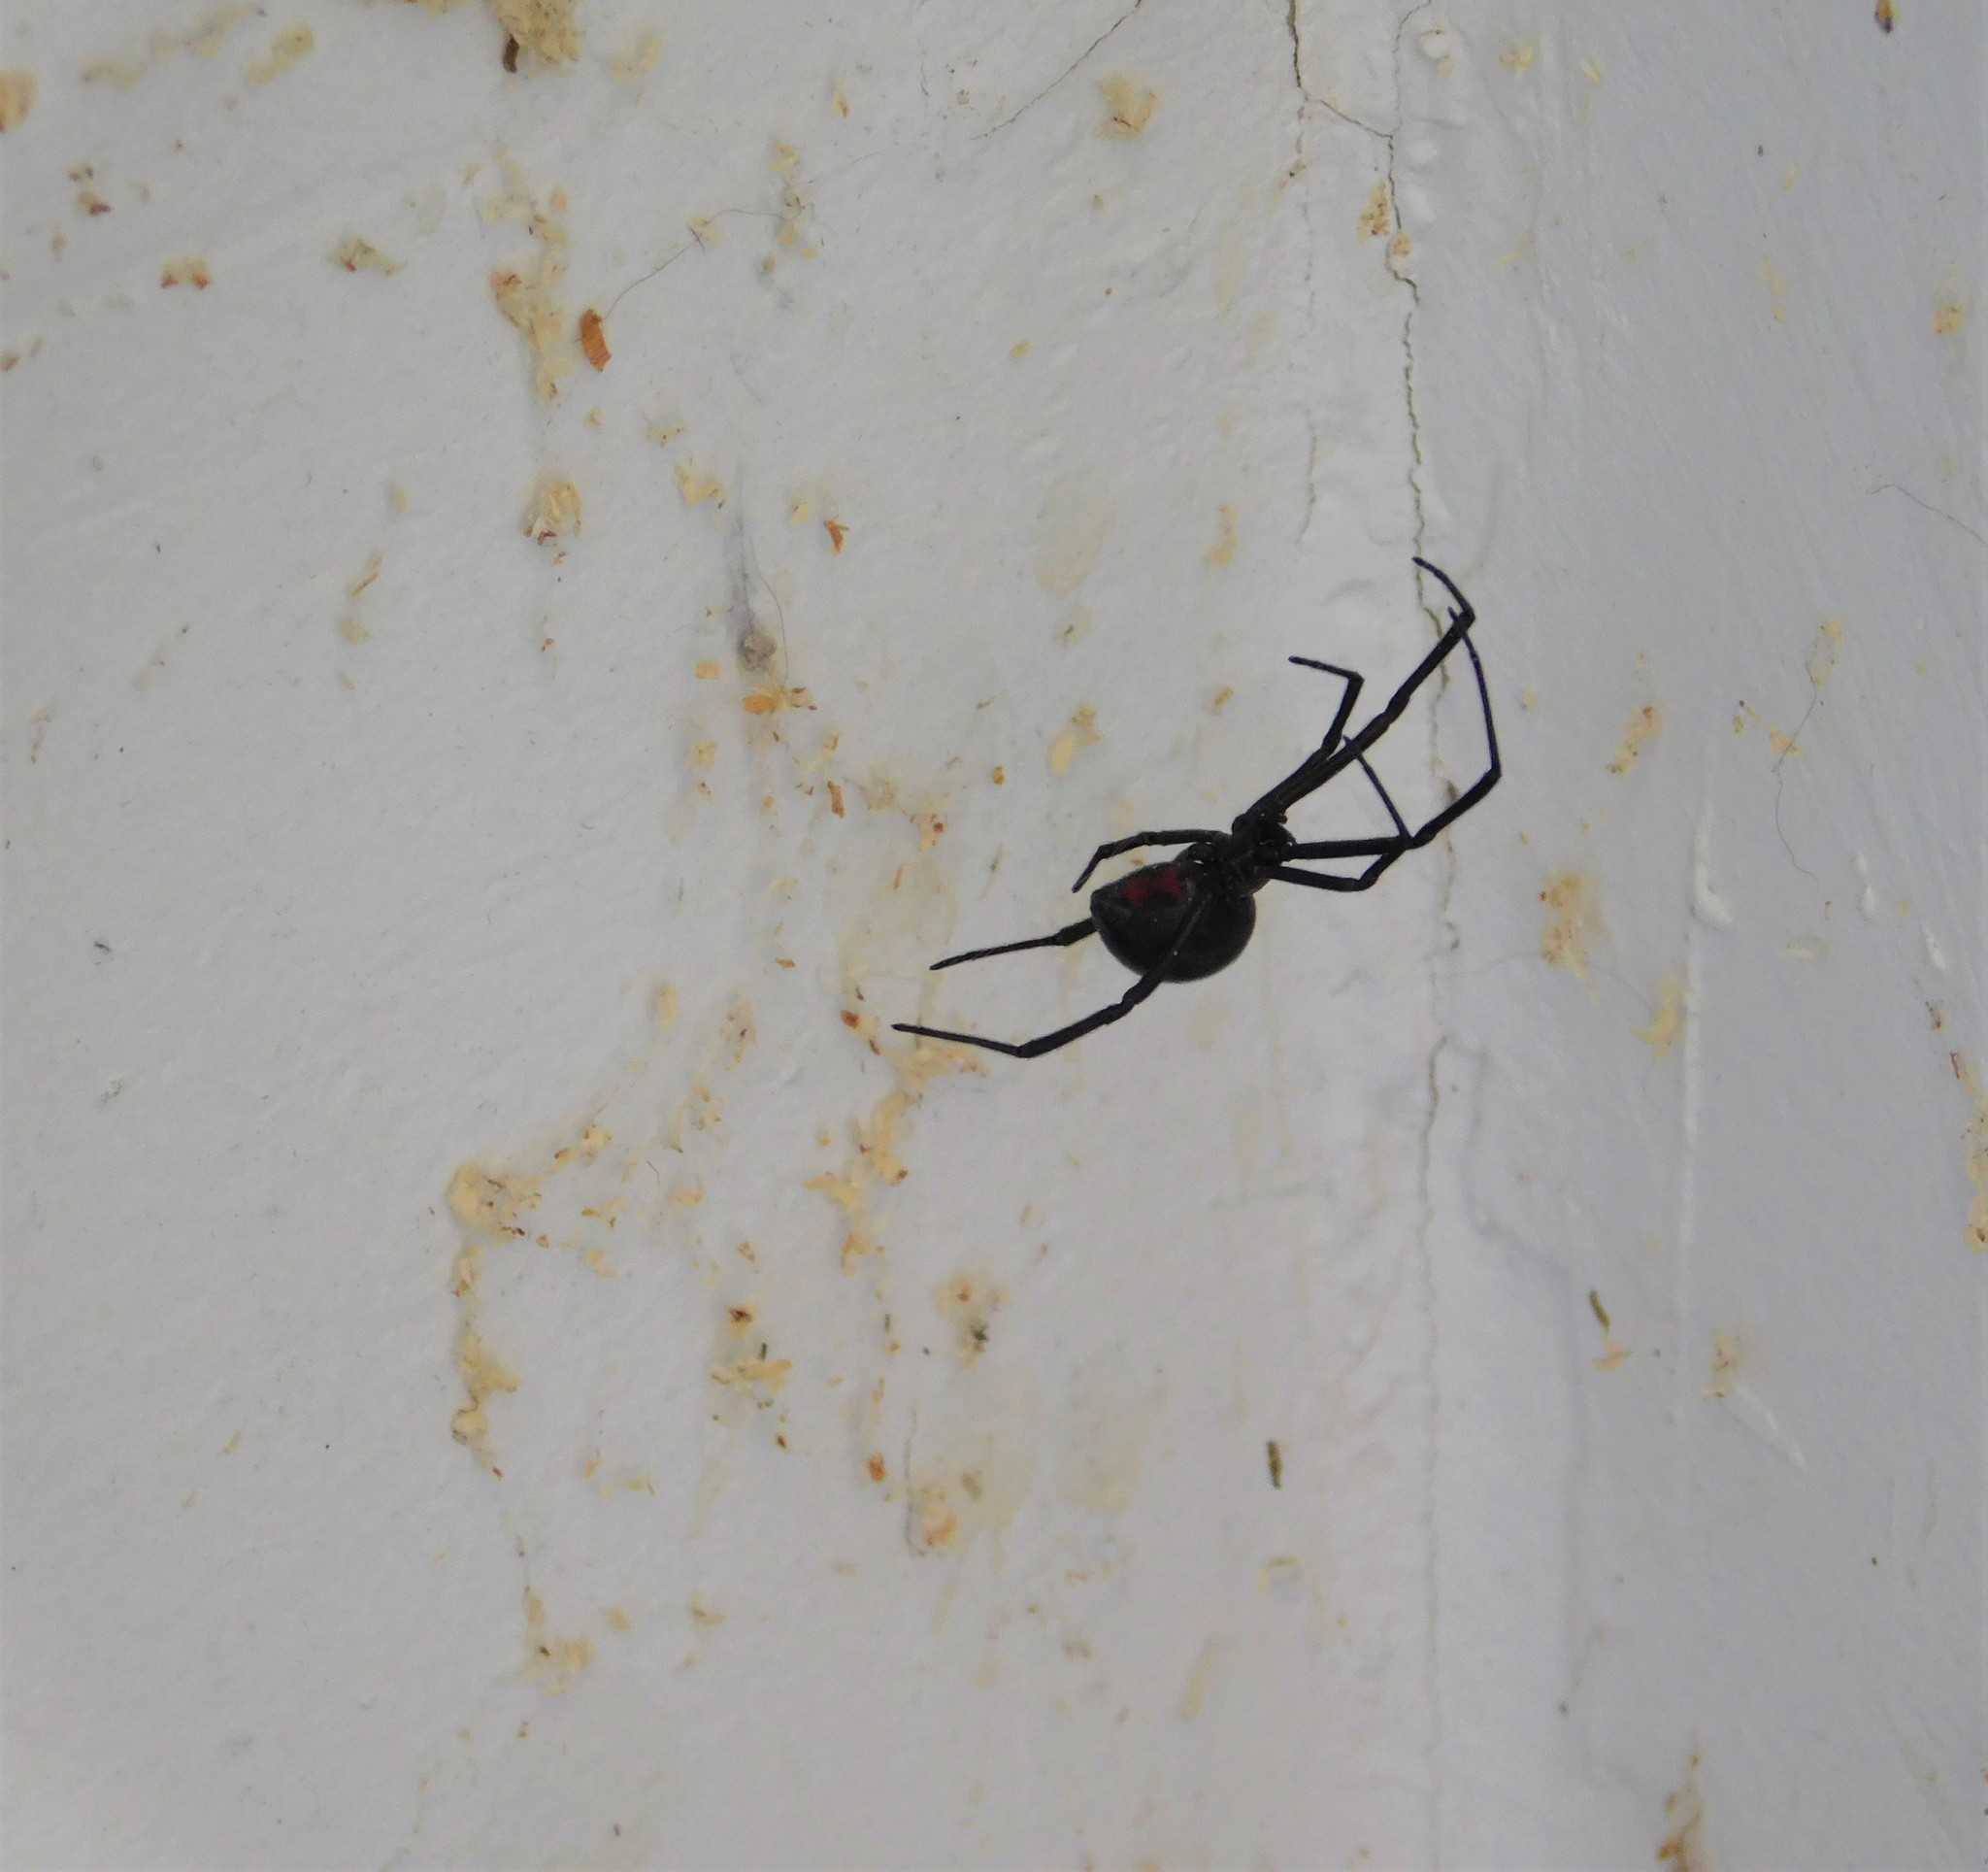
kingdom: Animalia
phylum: Arthropoda
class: Arachnida
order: Araneae
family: Theridiidae
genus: Latrodectus
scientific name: Latrodectus hesperus
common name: Western black widow
